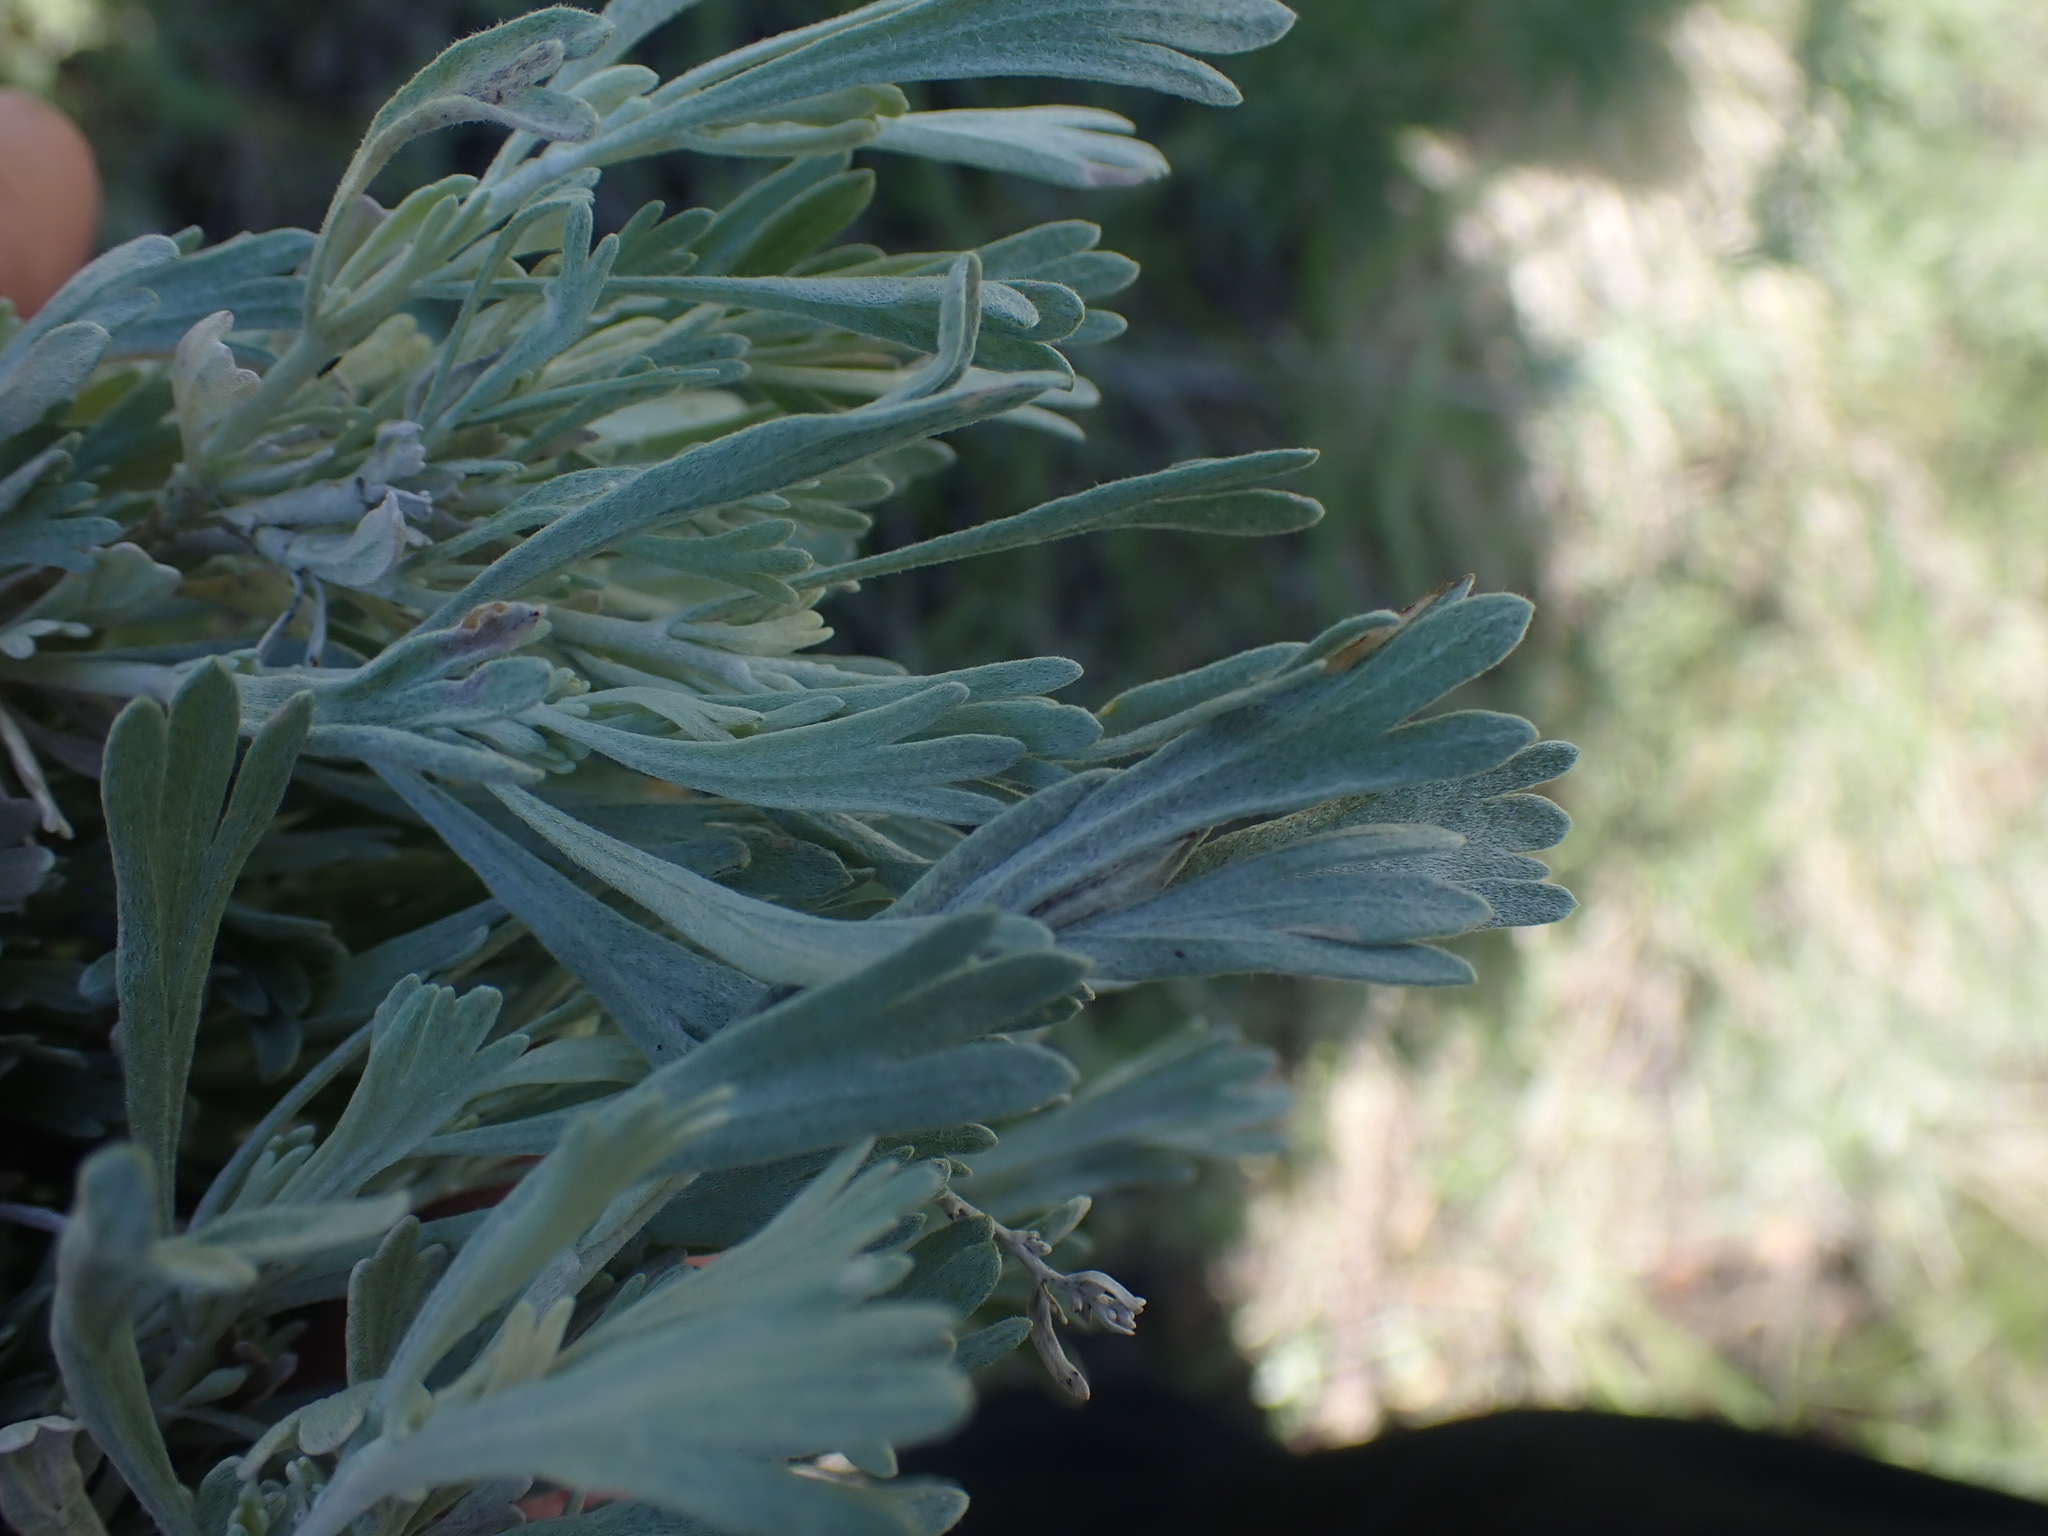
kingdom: Plantae
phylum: Tracheophyta
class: Magnoliopsida
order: Asterales
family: Asteraceae
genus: Artemisia
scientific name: Artemisia tripartita
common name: Three-tip sagebrush
